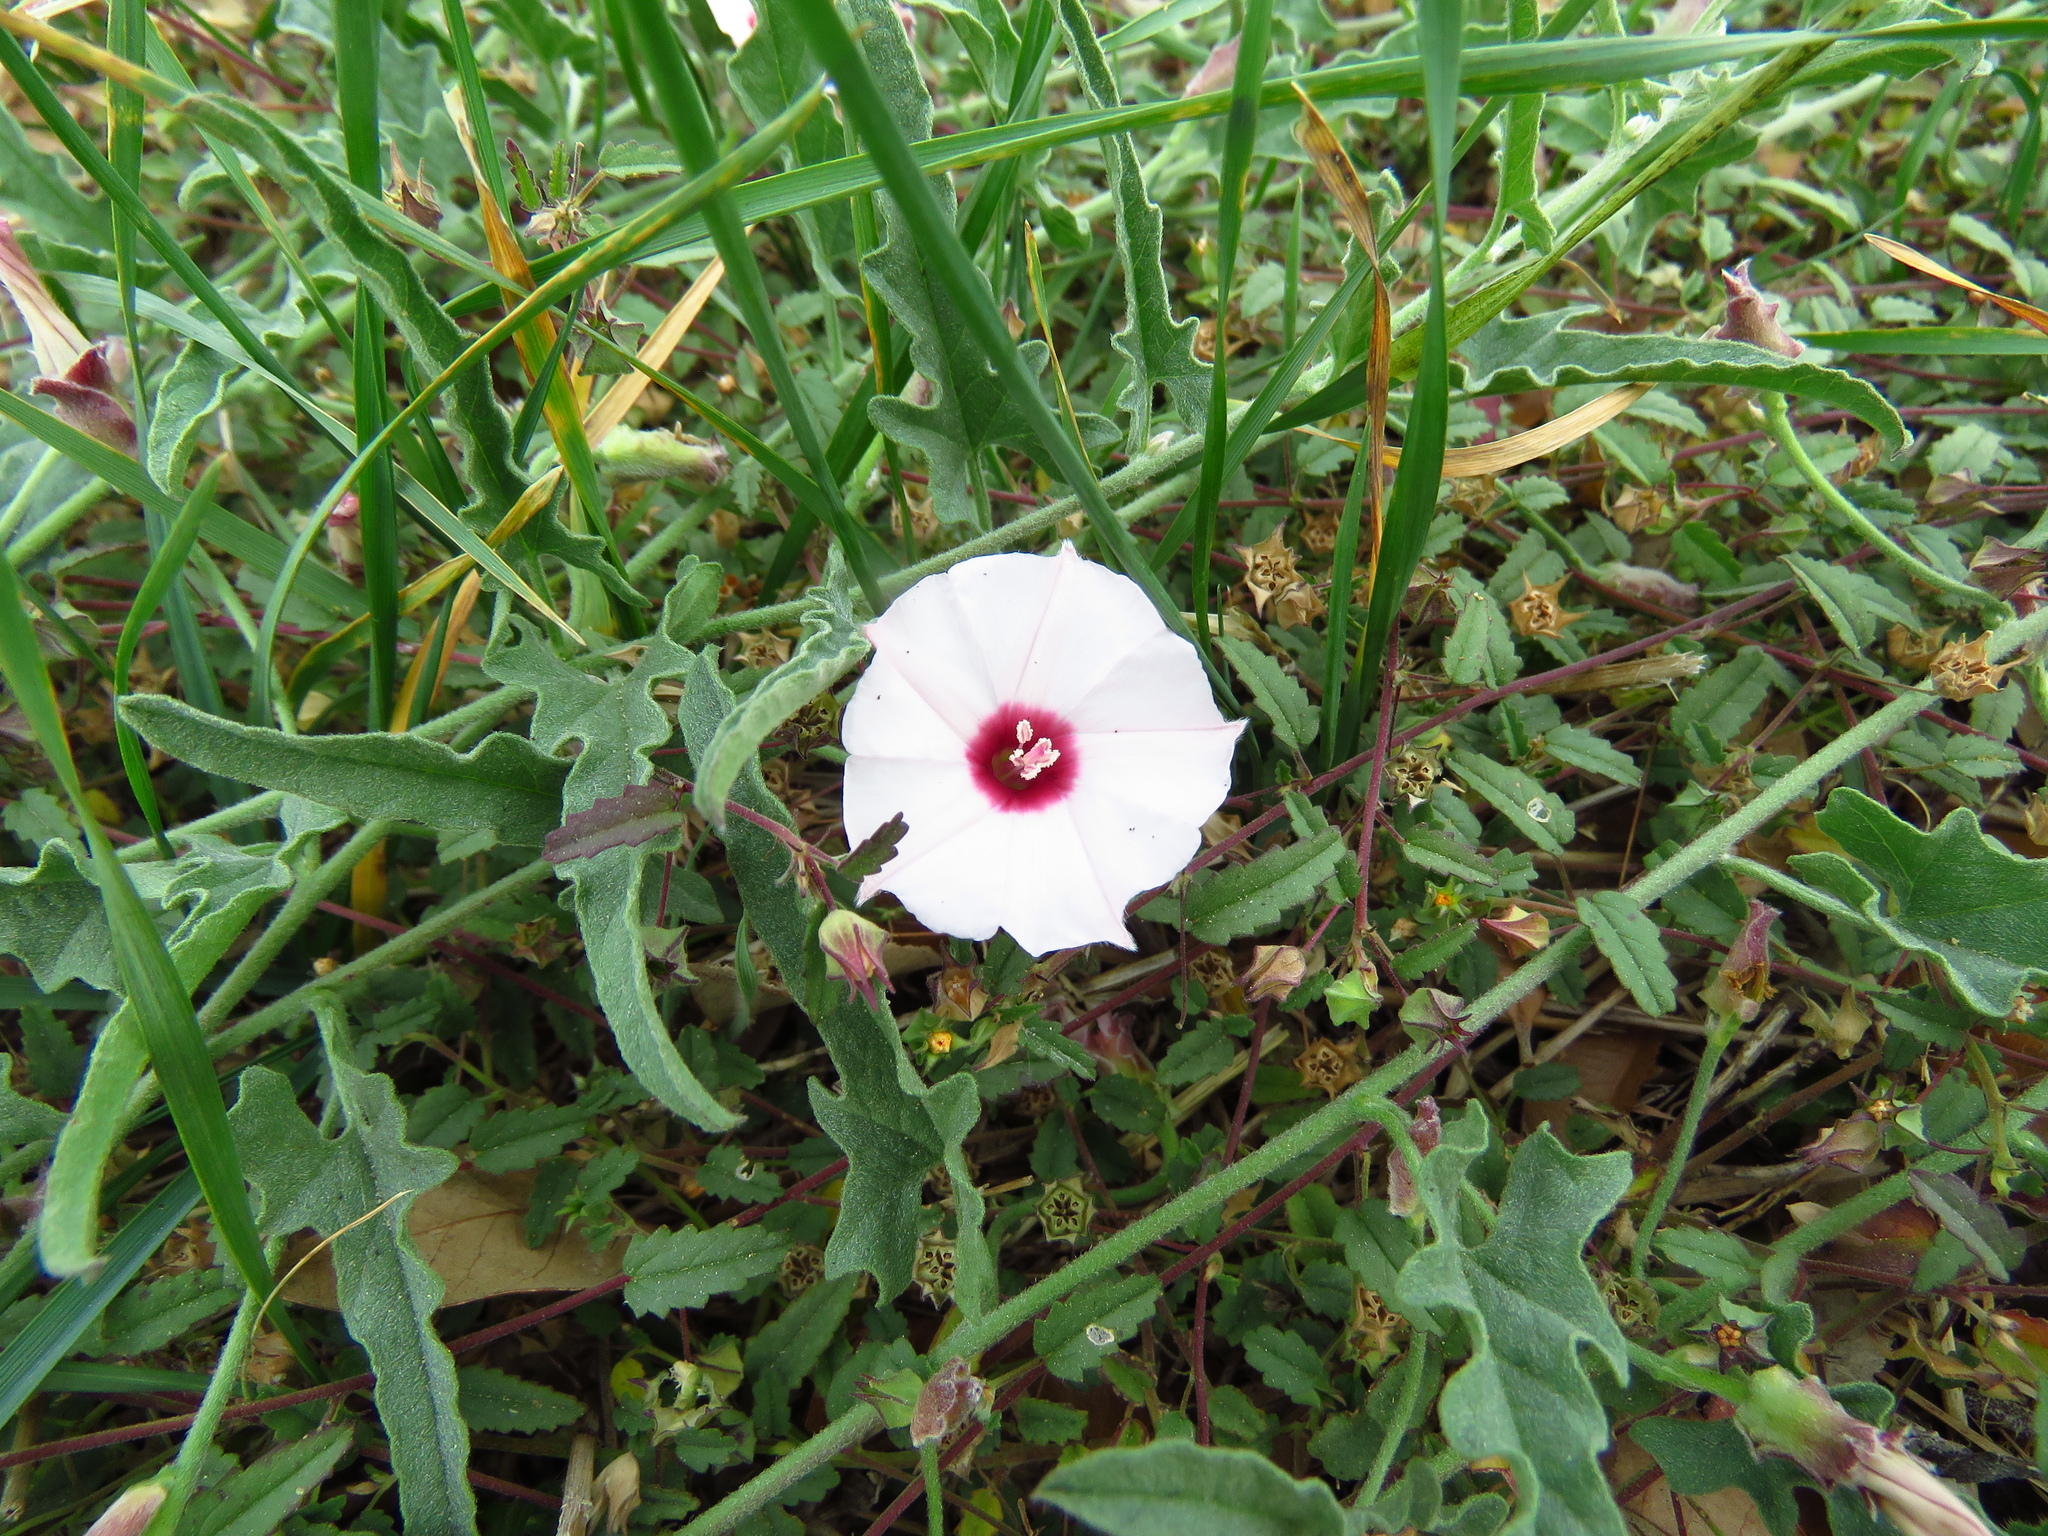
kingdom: Plantae
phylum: Tracheophyta
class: Magnoliopsida
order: Solanales
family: Convolvulaceae
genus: Convolvulus
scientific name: Convolvulus equitans
